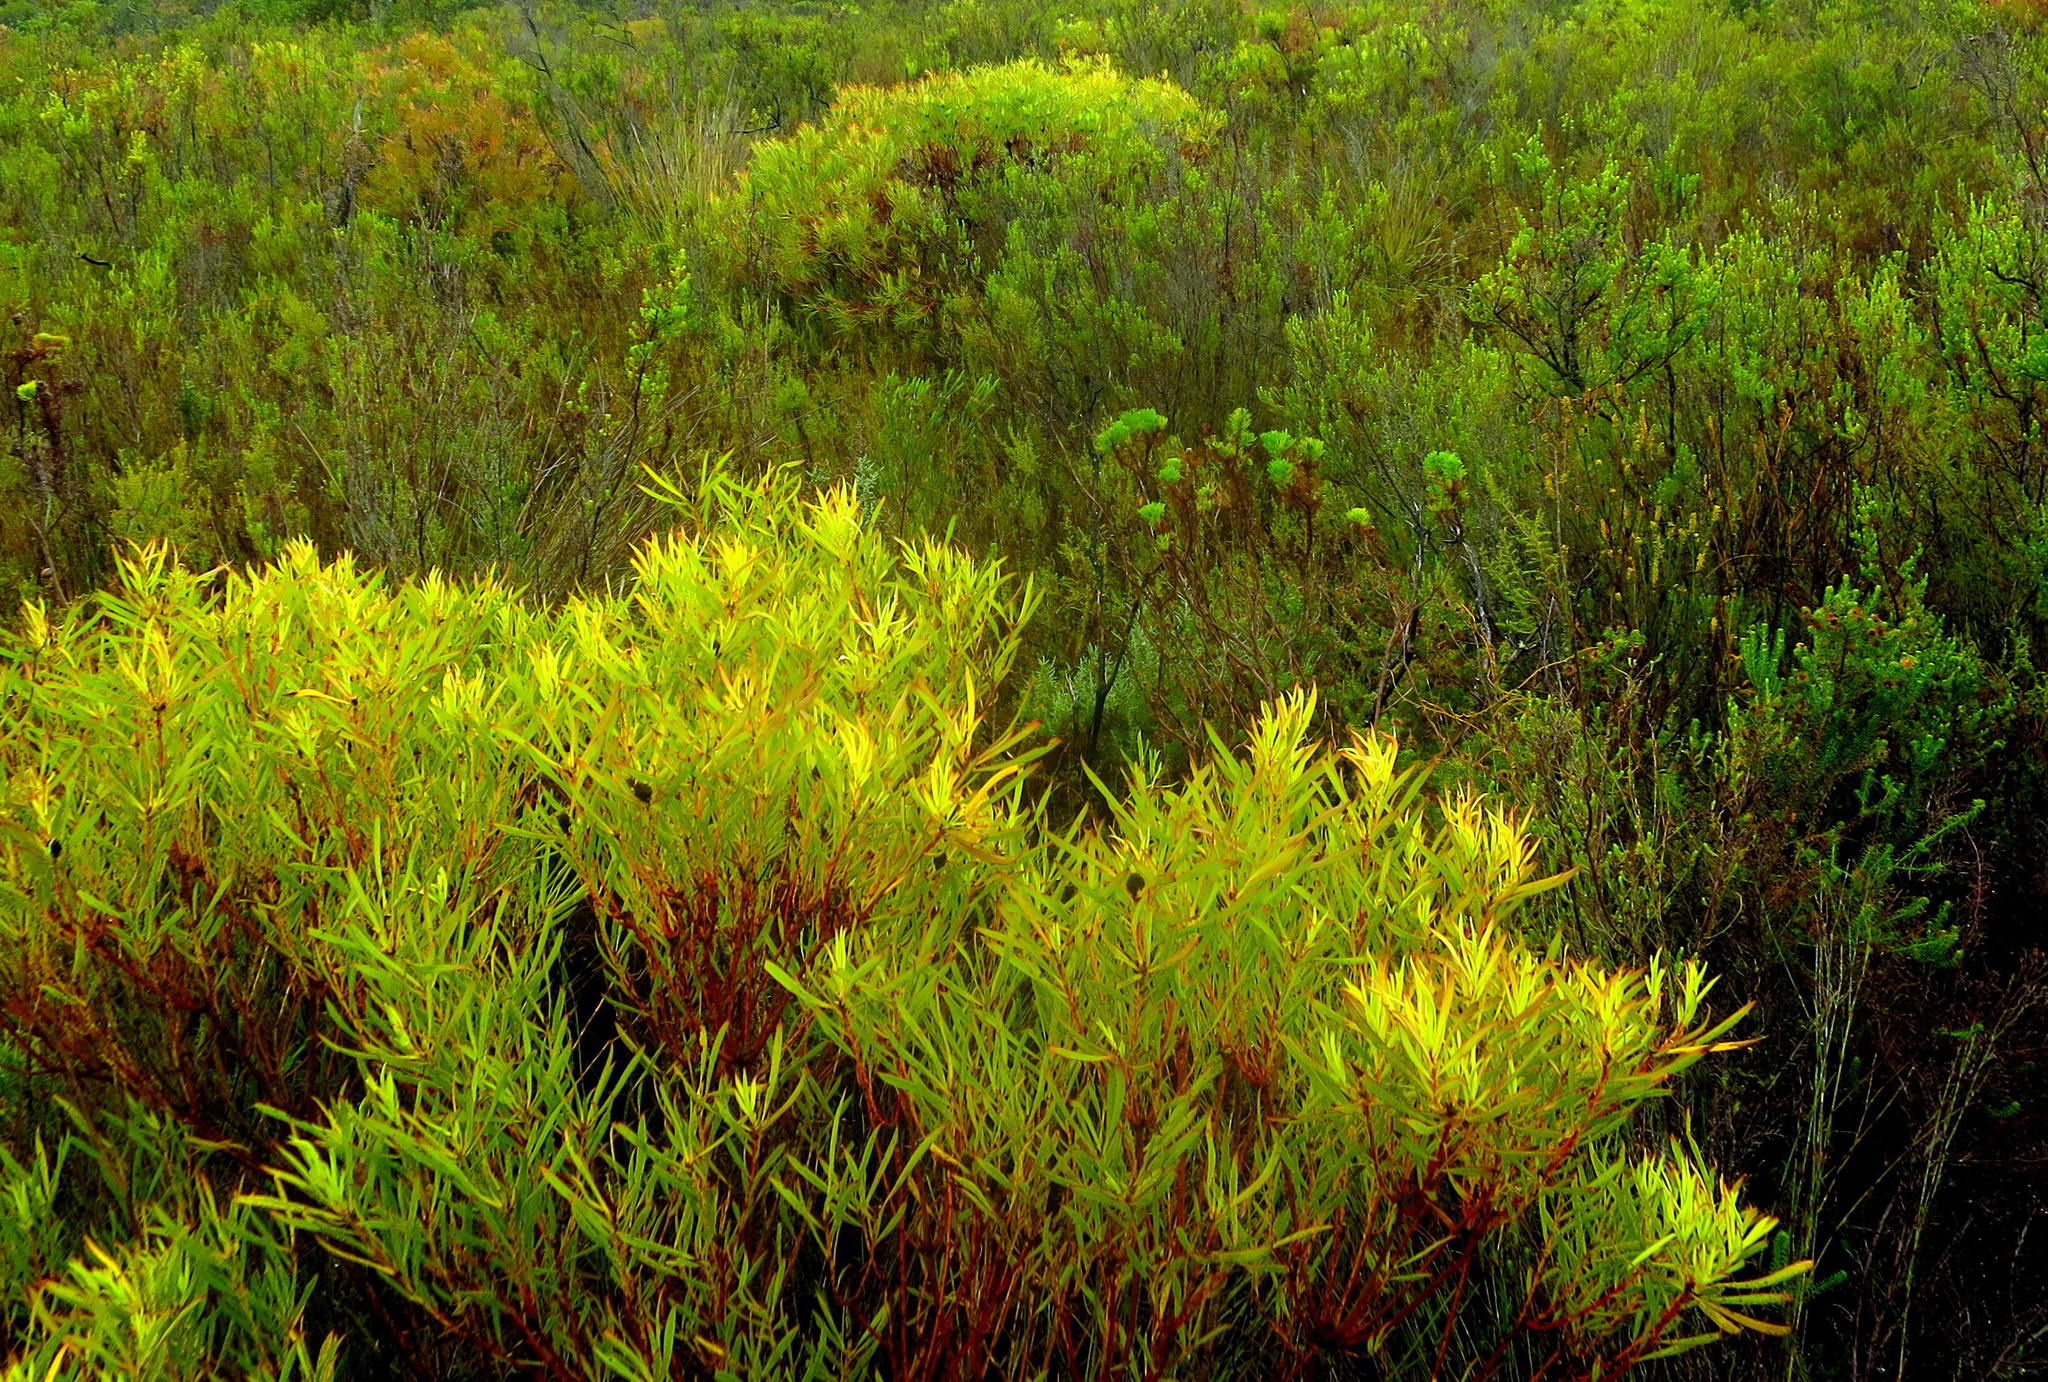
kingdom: Plantae
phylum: Tracheophyta
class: Magnoliopsida
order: Proteales
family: Proteaceae
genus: Leucadendron
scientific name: Leucadendron salignum
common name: Common sunshine conebush
